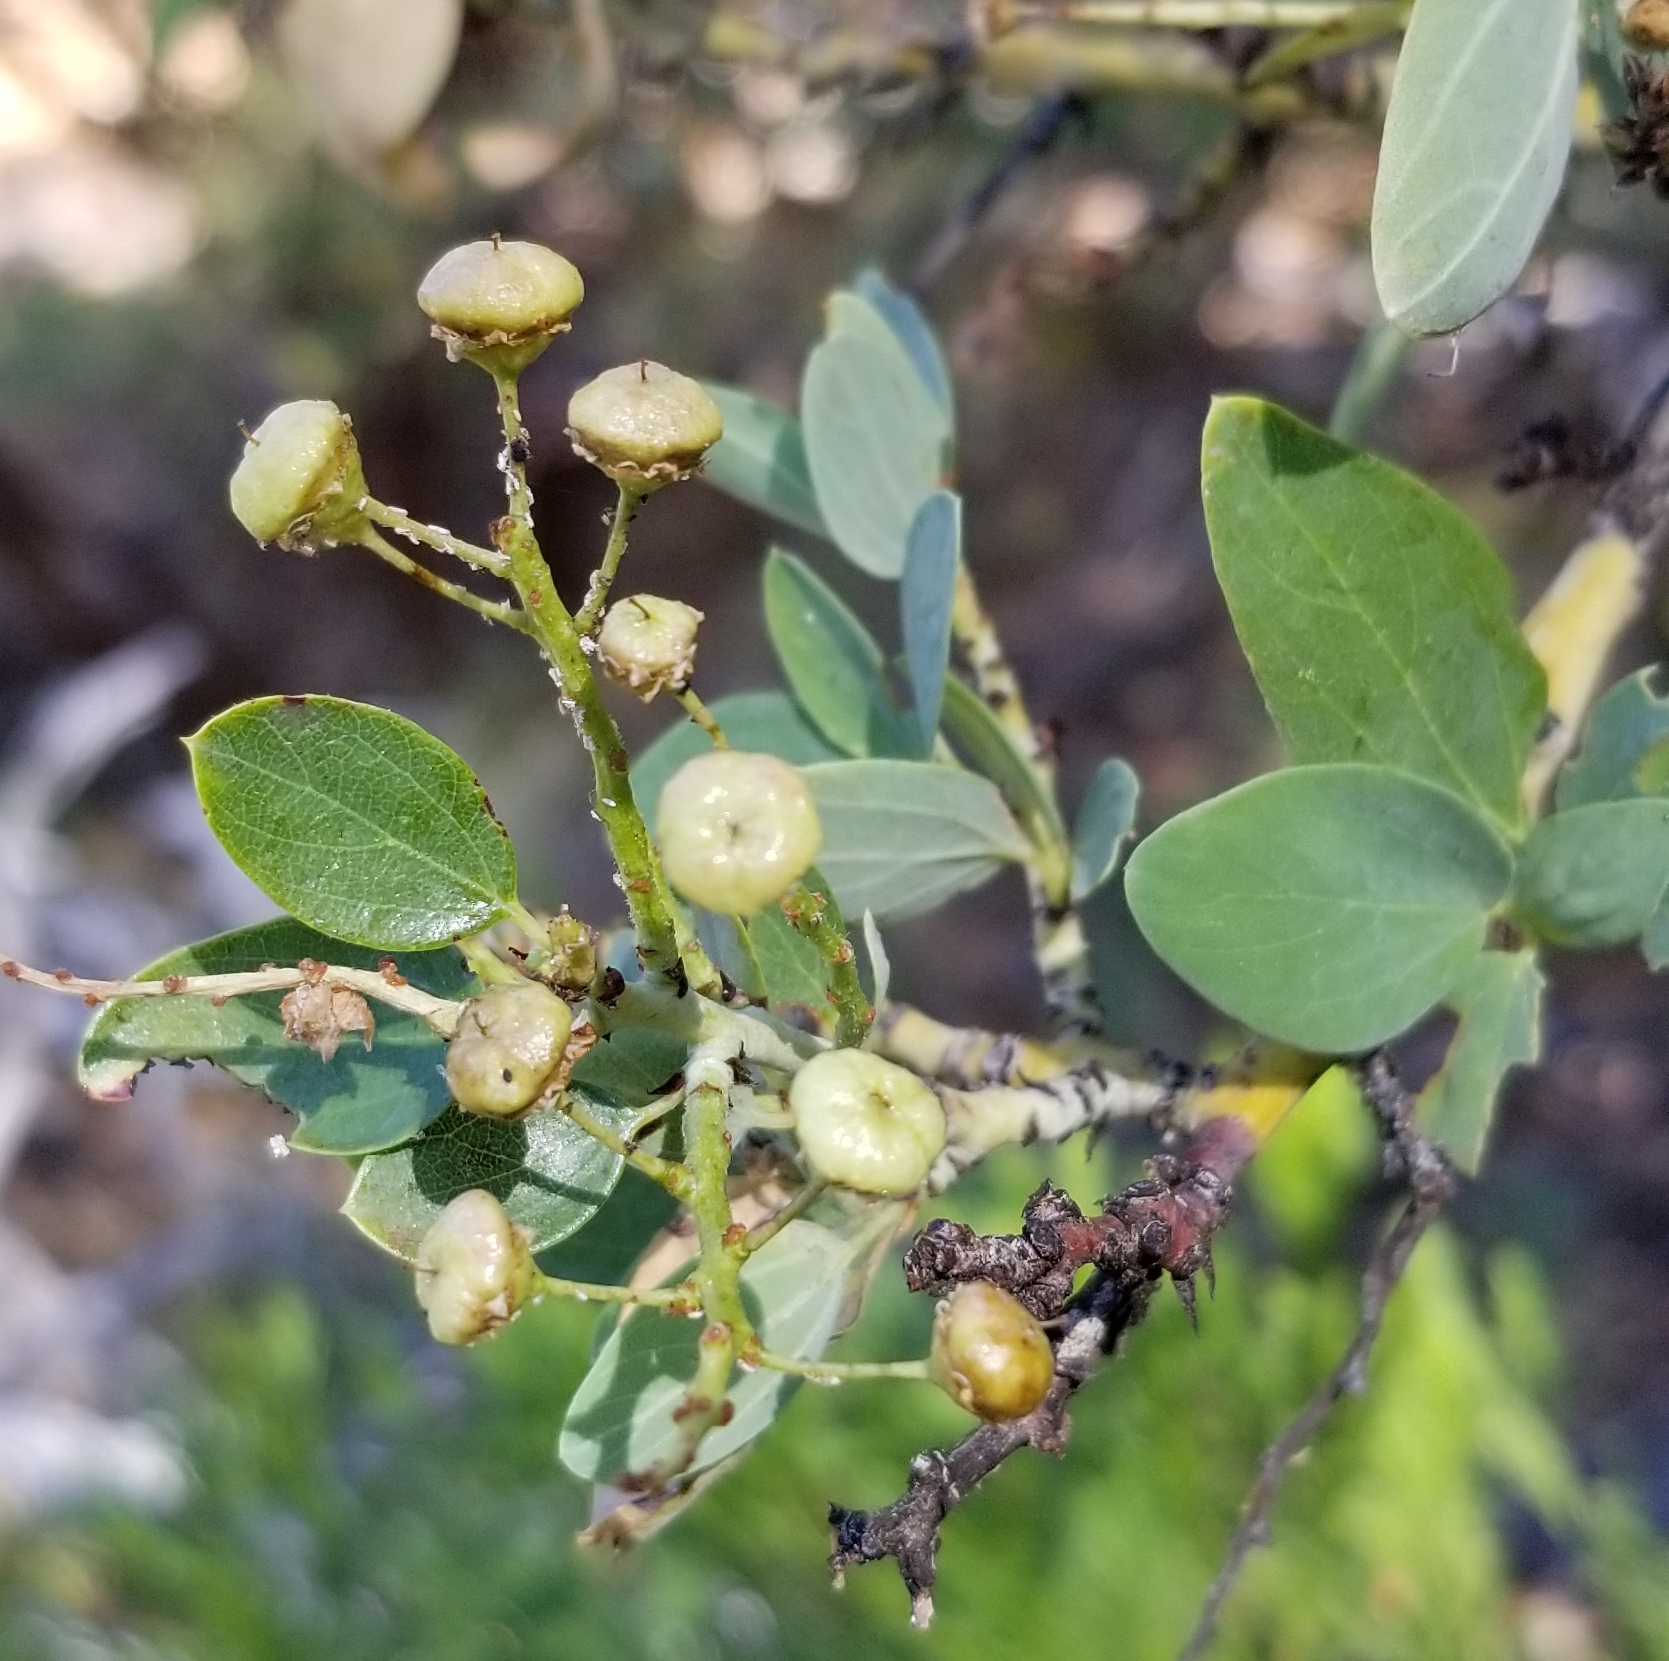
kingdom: Plantae
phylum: Tracheophyta
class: Magnoliopsida
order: Rosales
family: Rhamnaceae
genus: Ceanothus
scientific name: Ceanothus leucodermis
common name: Chaparral whitethorn
